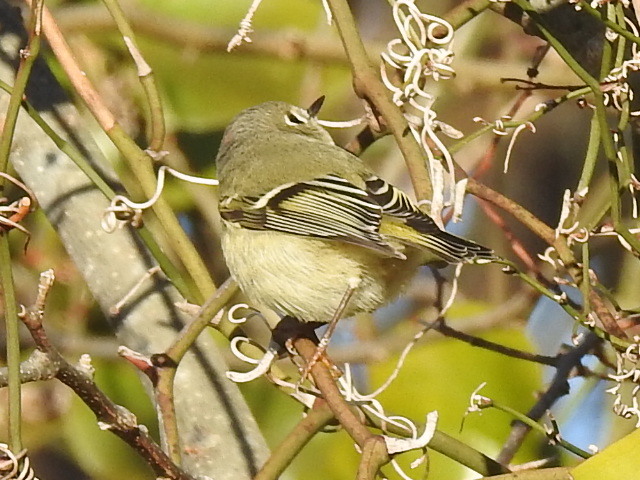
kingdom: Animalia
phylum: Chordata
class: Aves
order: Passeriformes
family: Regulidae
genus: Regulus
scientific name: Regulus calendula
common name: Ruby-crowned kinglet
